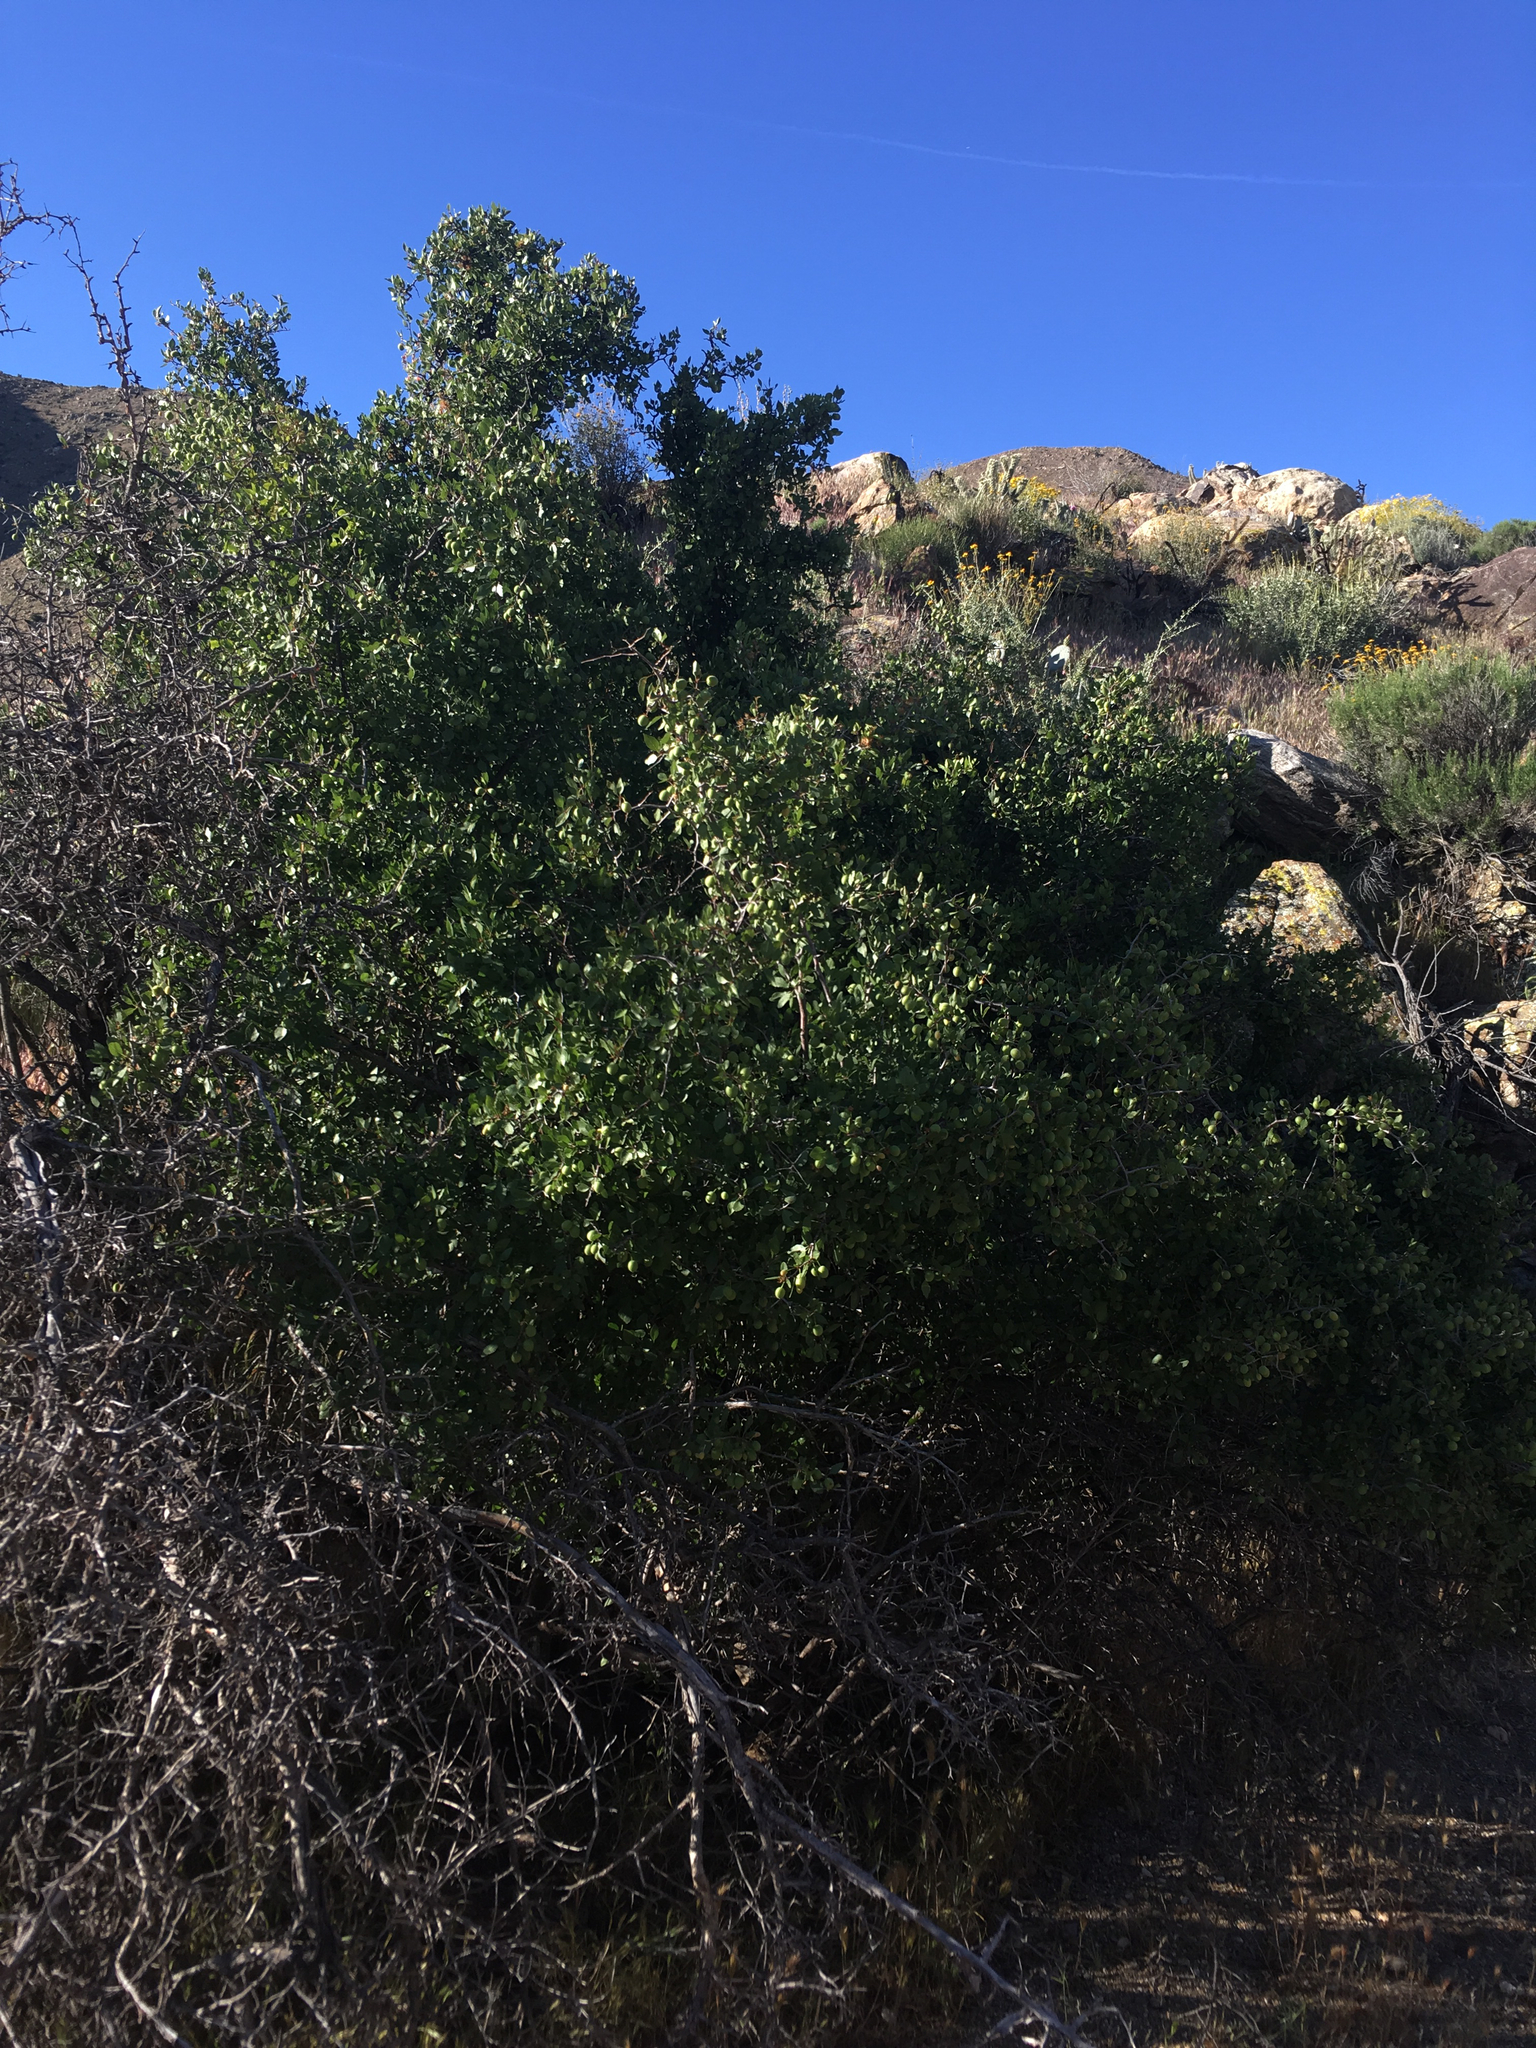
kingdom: Plantae
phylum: Tracheophyta
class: Magnoliopsida
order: Rosales
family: Rosaceae
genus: Prunus
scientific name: Prunus fremontii
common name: Desert apricot
